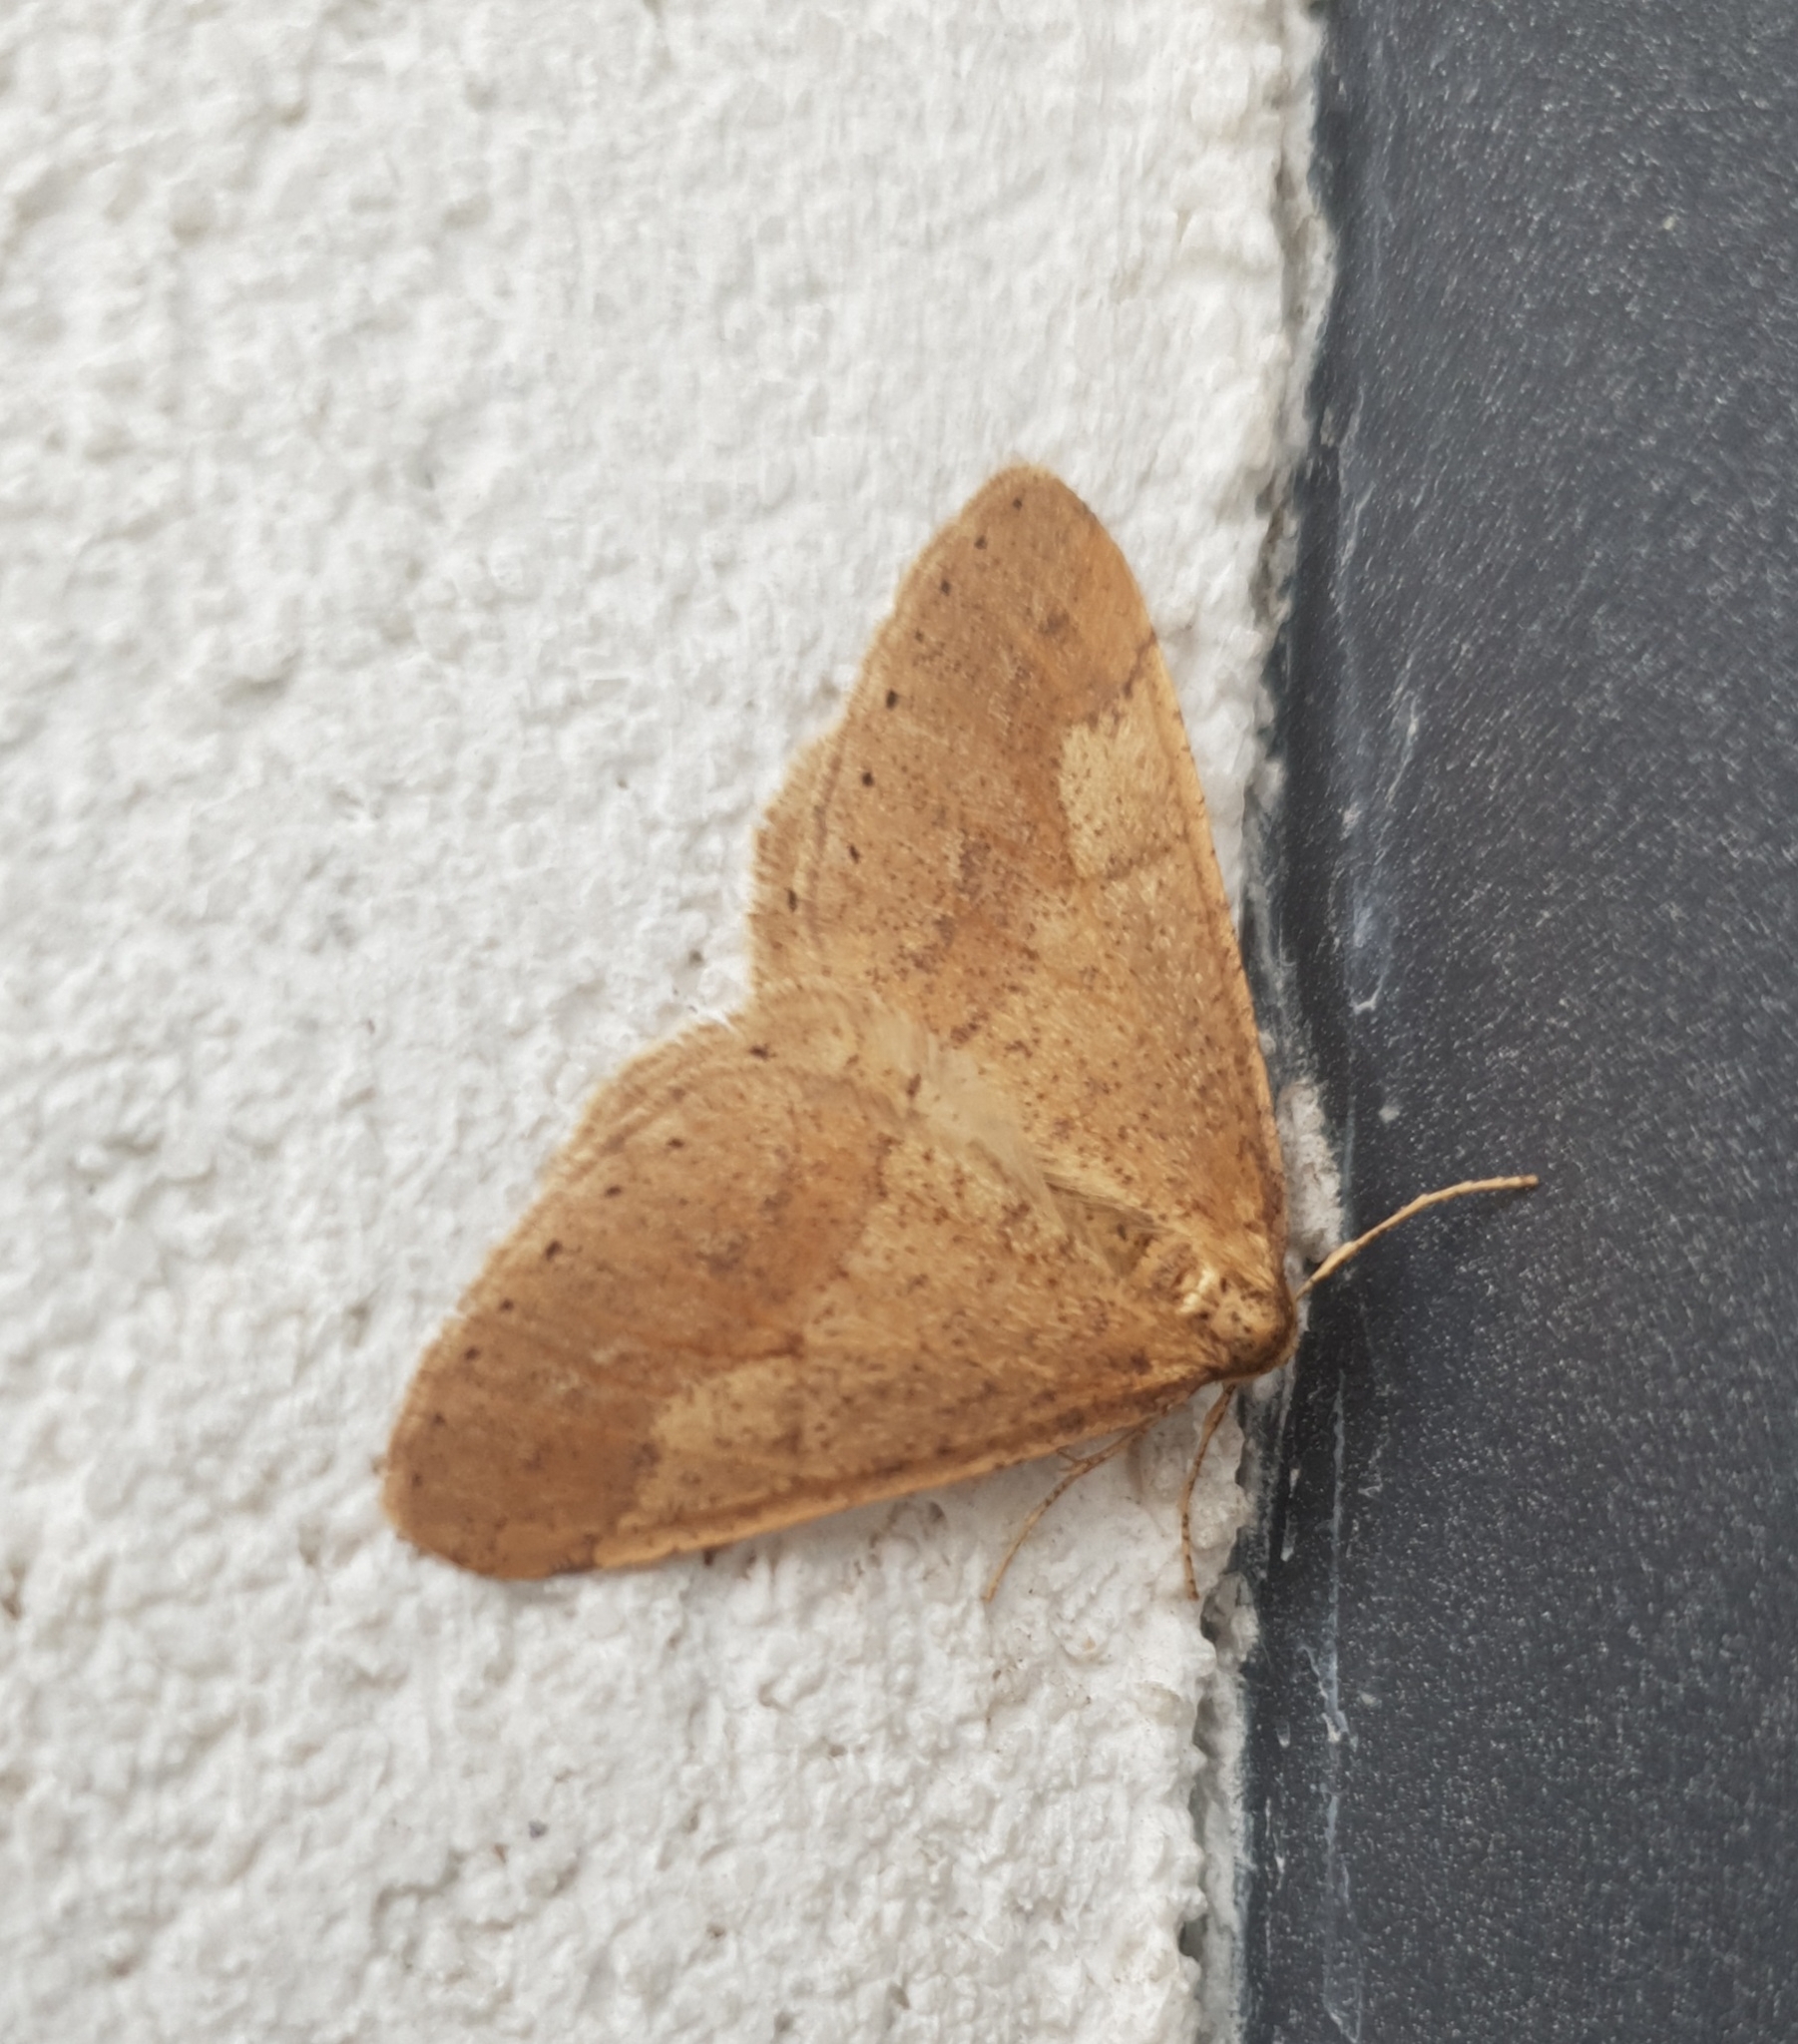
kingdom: Animalia
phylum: Arthropoda
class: Insecta
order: Lepidoptera
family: Geometridae
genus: Agriopis
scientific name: Agriopis marginaria
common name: Dotted border
